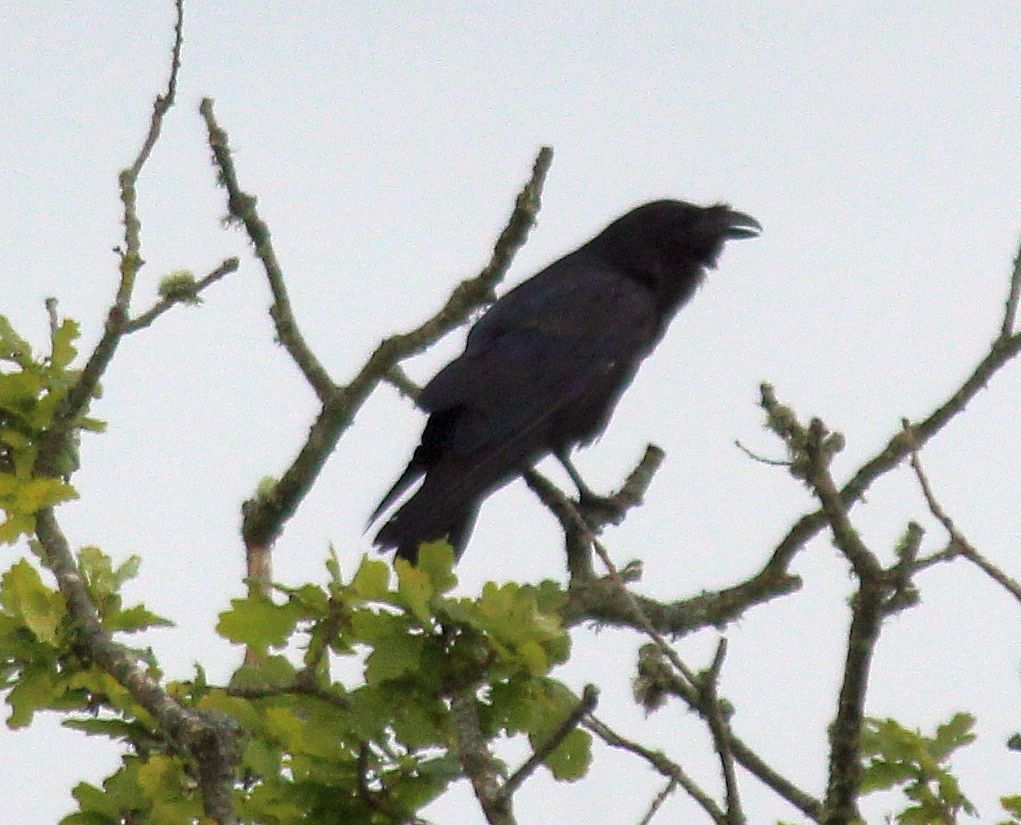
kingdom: Animalia
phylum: Chordata
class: Aves
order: Passeriformes
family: Corvidae
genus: Corvus
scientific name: Corvus corax
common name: Common raven
